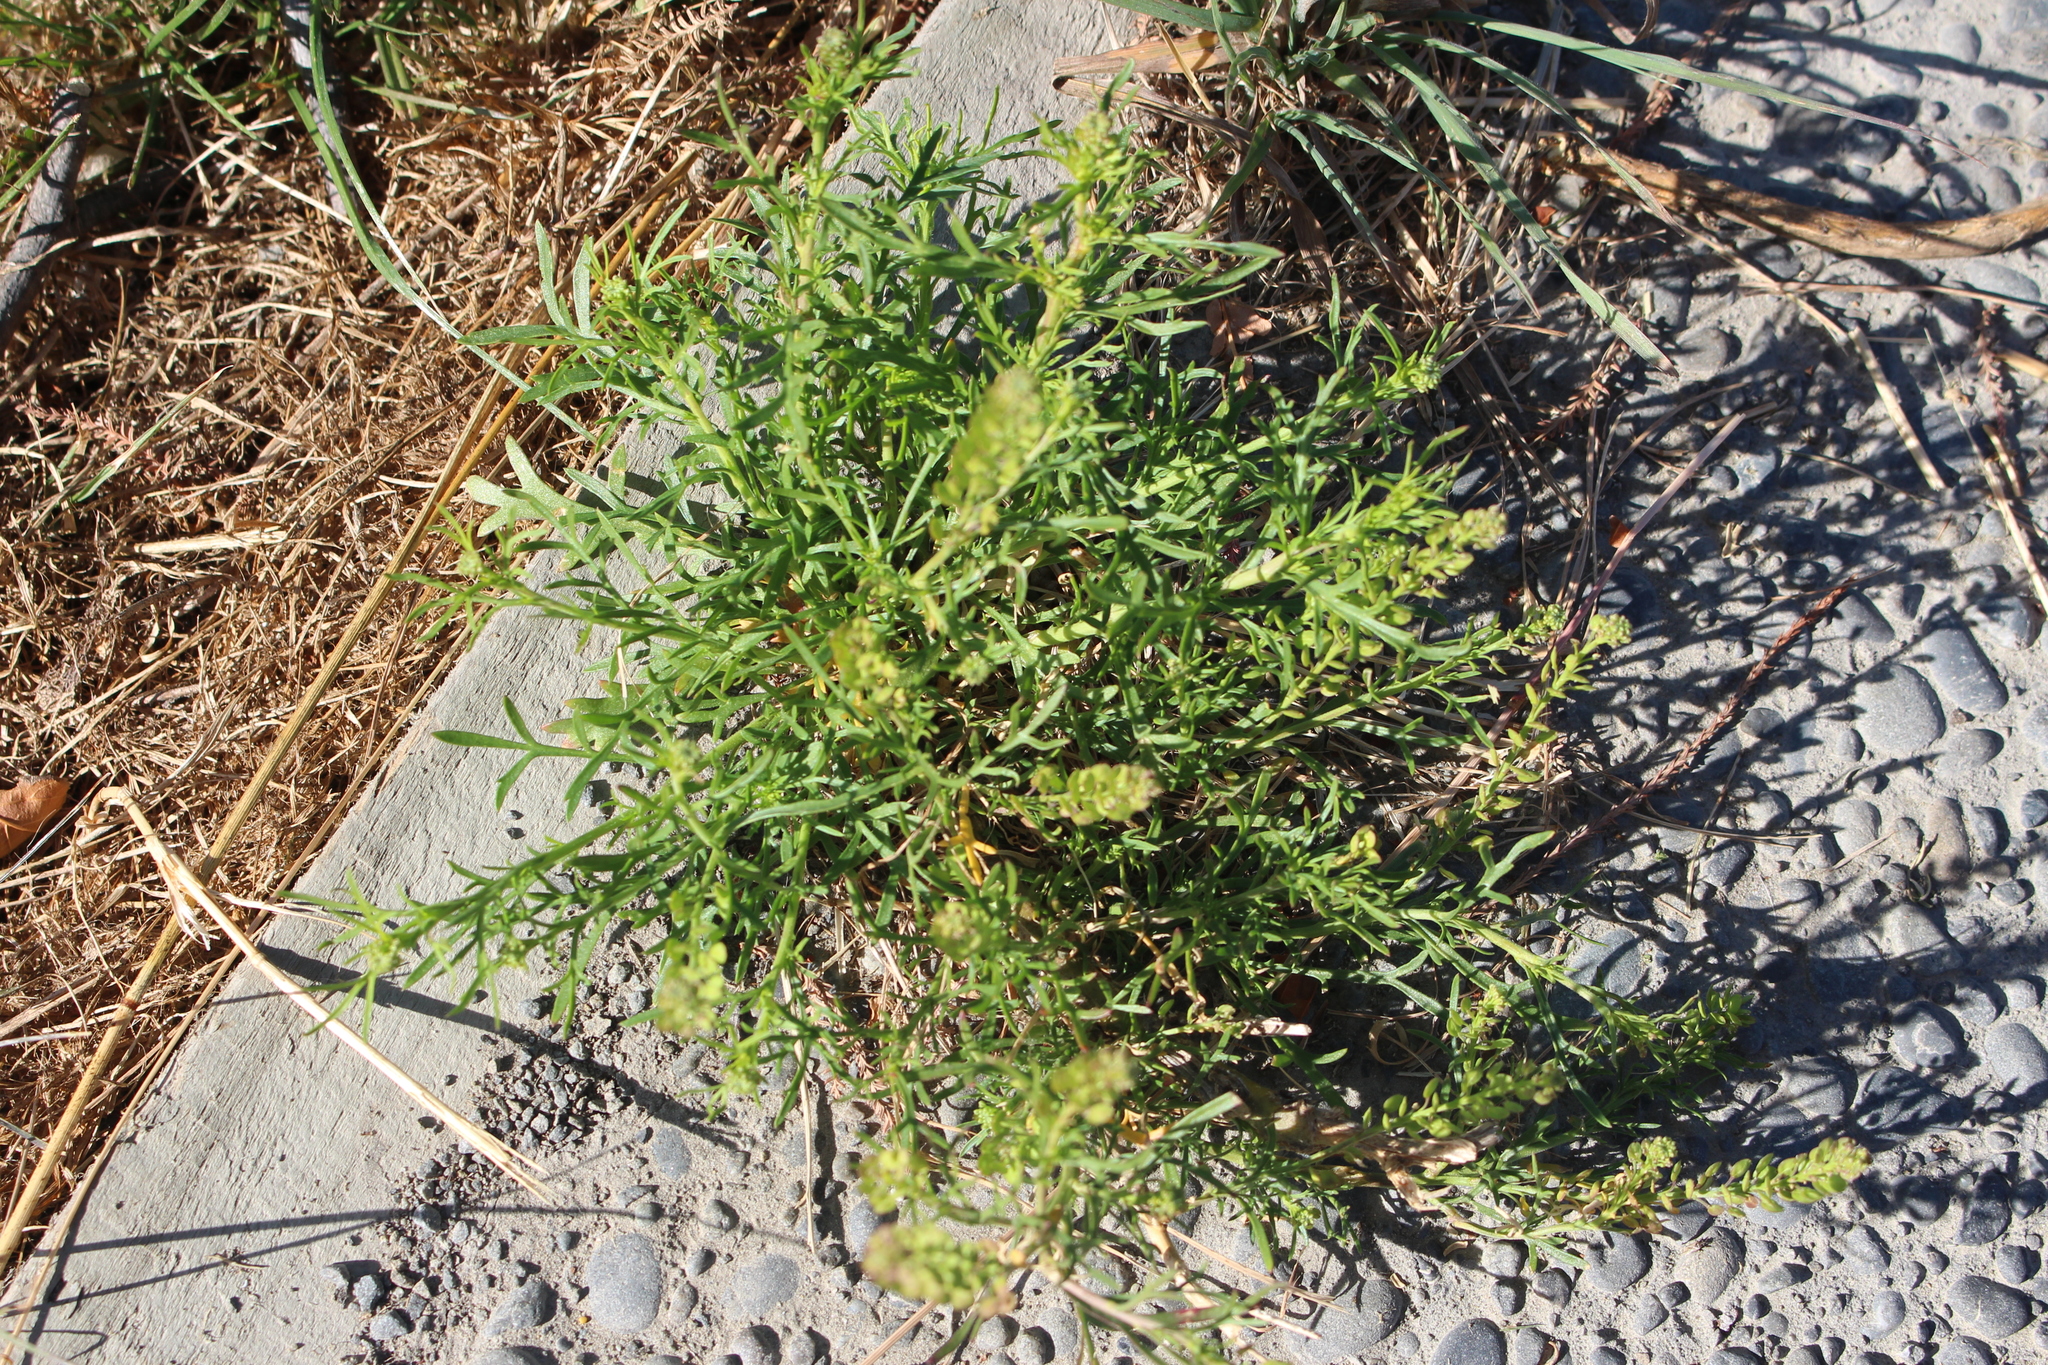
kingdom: Plantae
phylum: Tracheophyta
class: Magnoliopsida
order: Brassicales
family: Brassicaceae
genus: Lepidium
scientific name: Lepidium bonariense
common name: Argentine pepperwort
